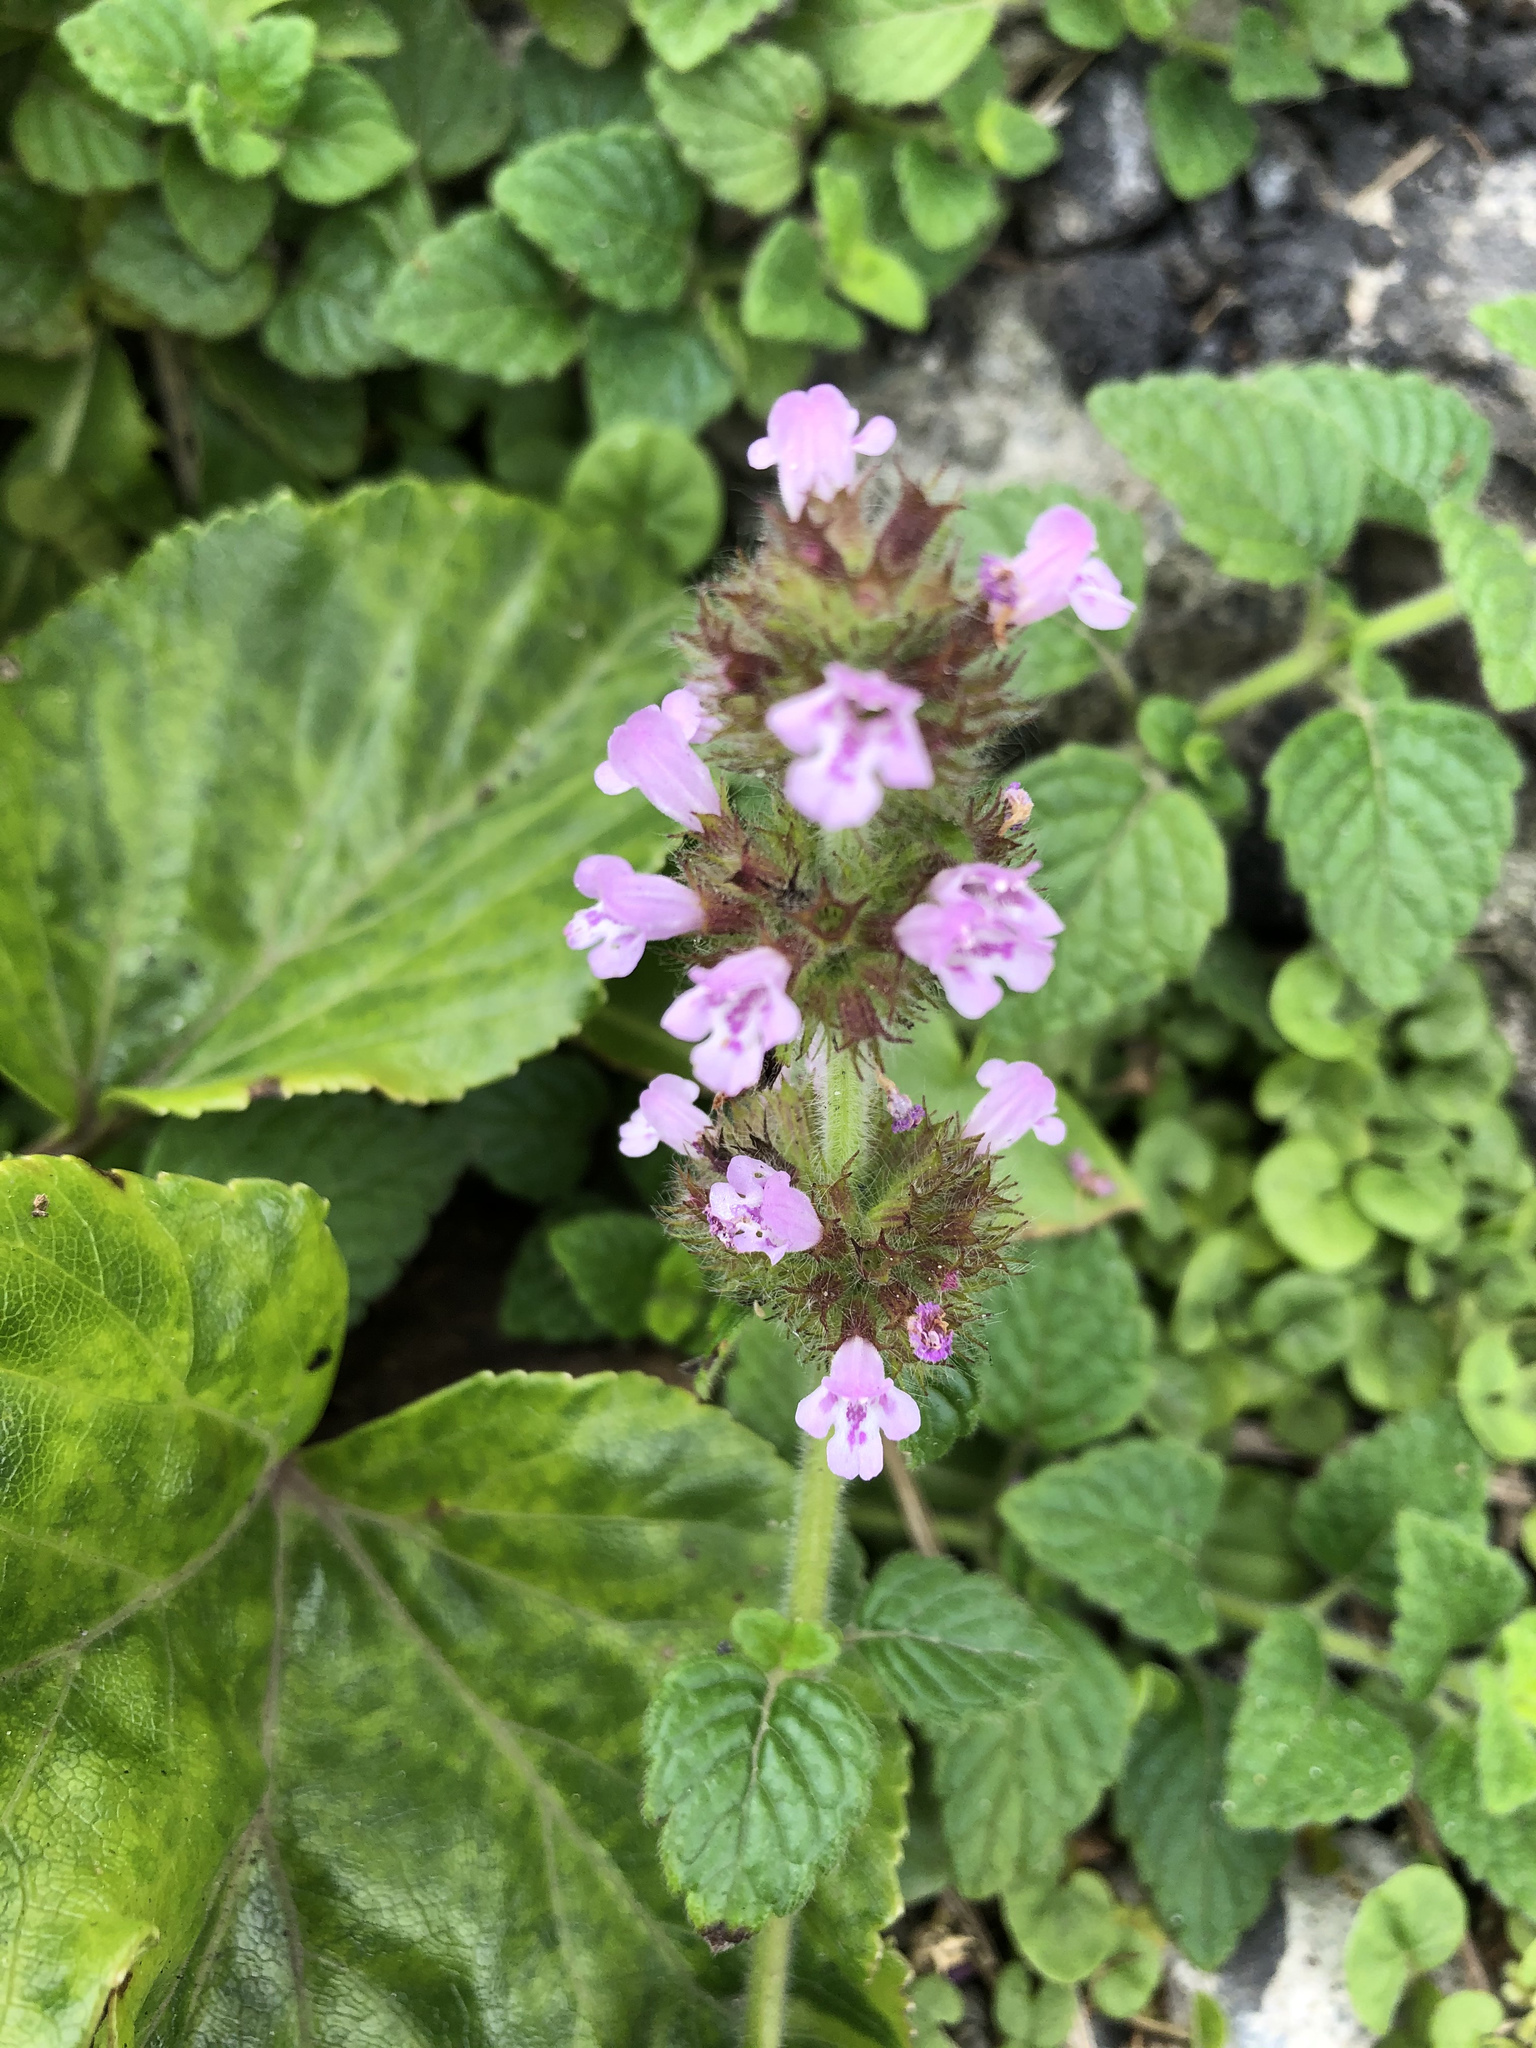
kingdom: Plantae
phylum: Tracheophyta
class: Magnoliopsida
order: Lamiales
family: Lamiaceae
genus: Clinopodium
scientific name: Clinopodium chinense
